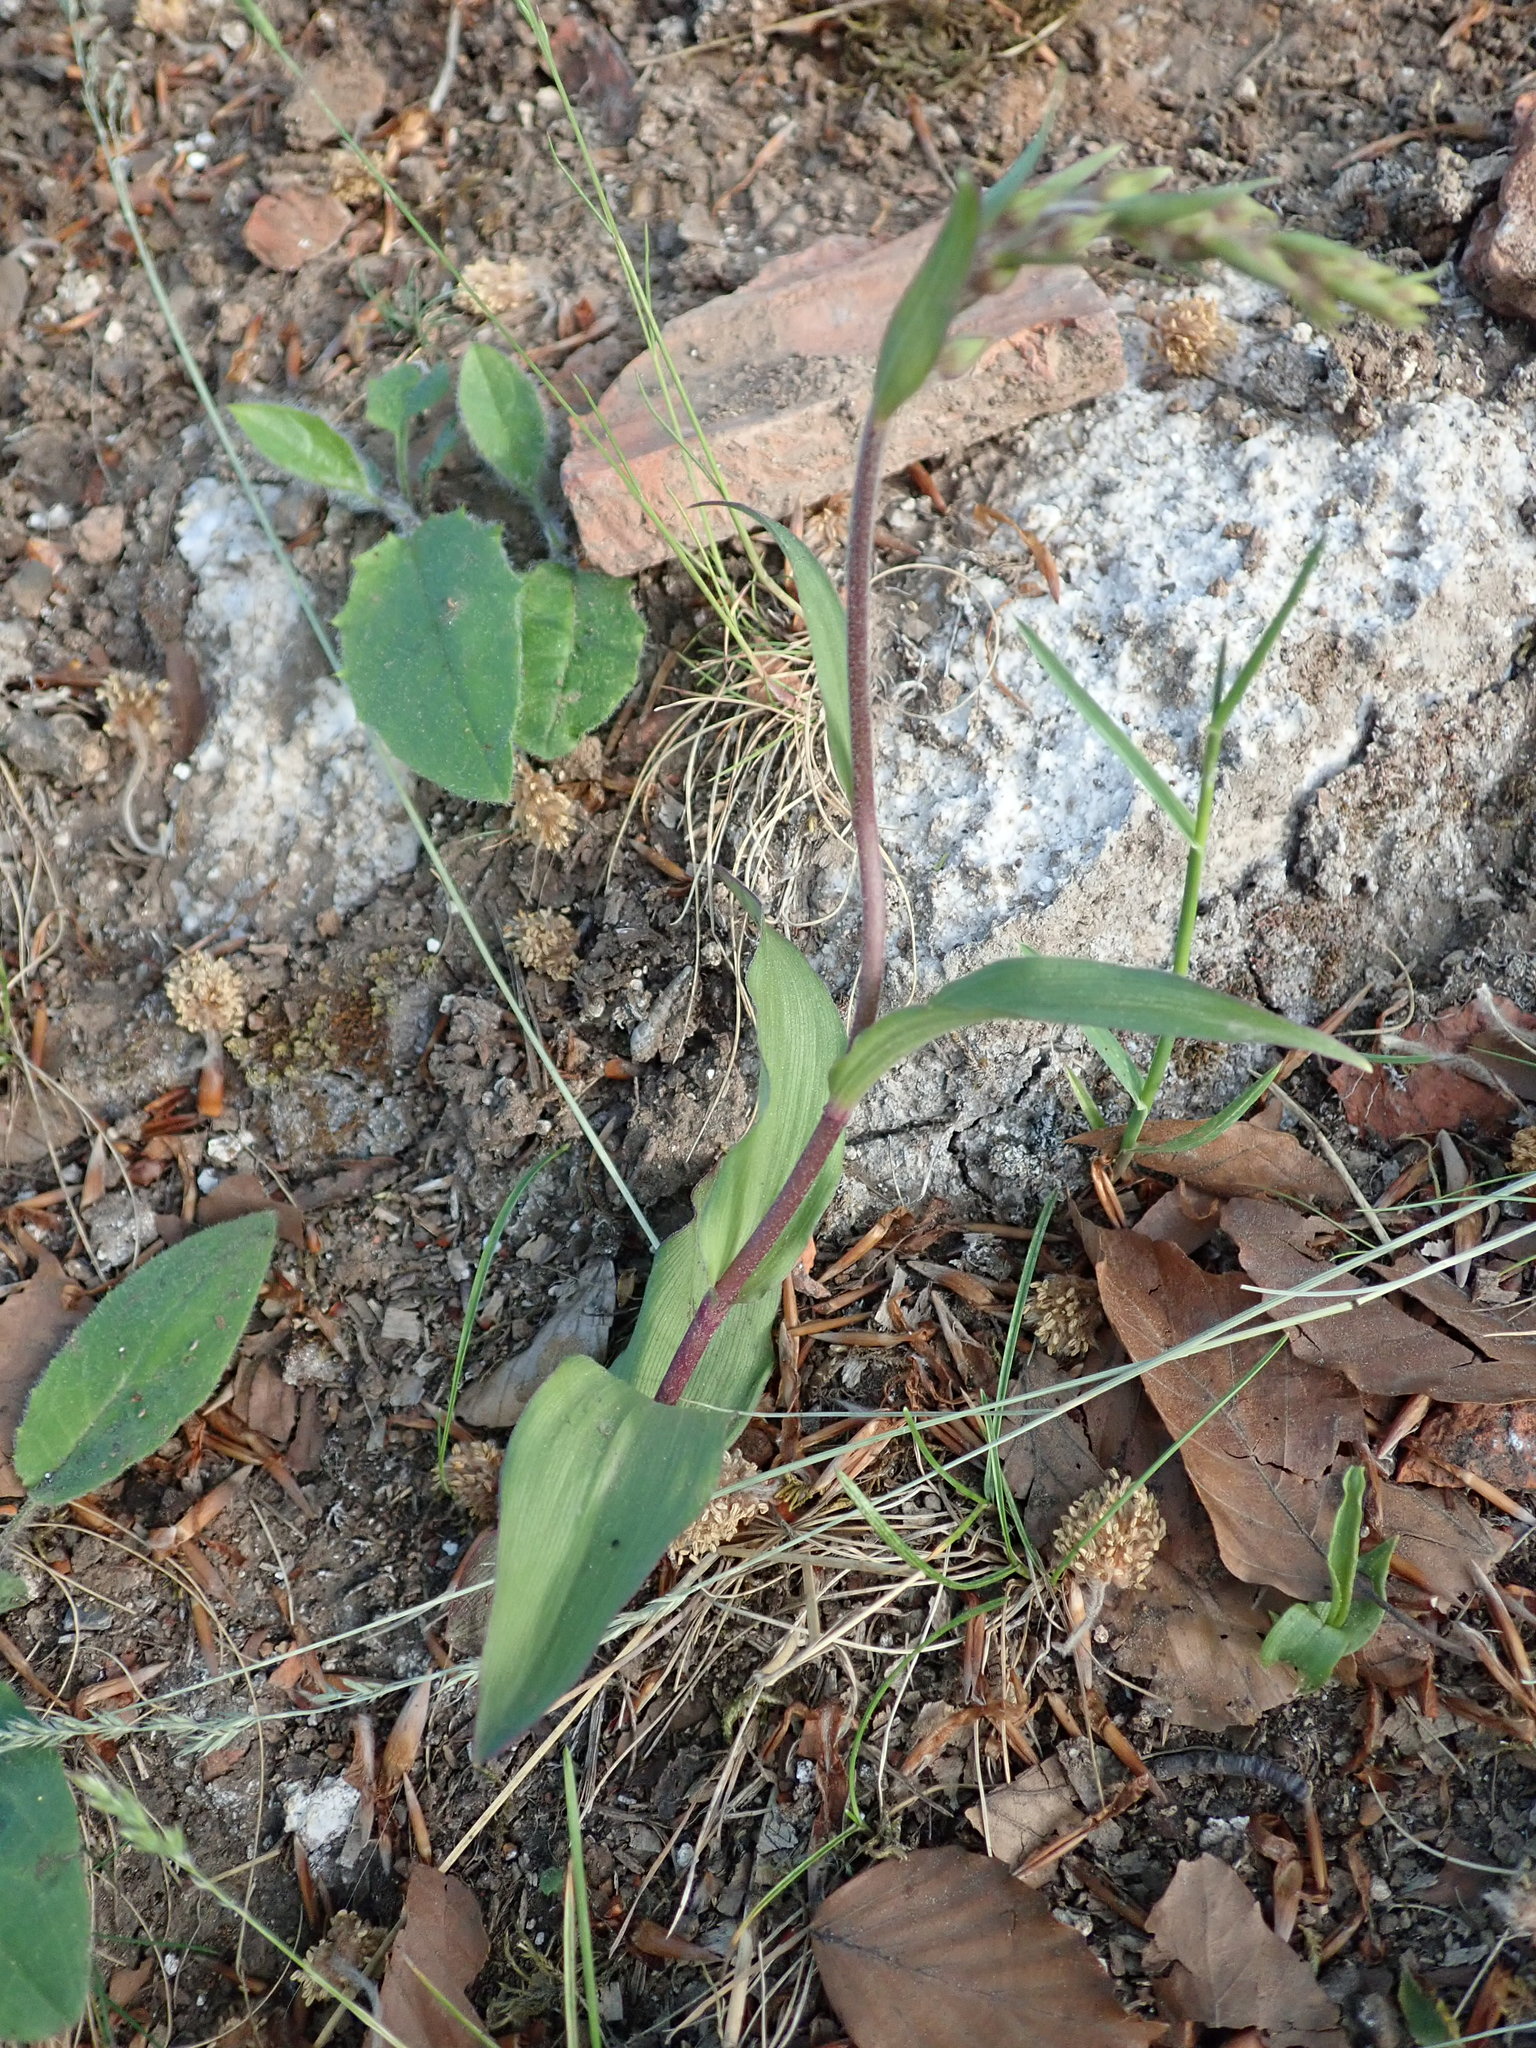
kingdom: Plantae
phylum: Tracheophyta
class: Liliopsida
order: Asparagales
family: Orchidaceae
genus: Epipactis
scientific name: Epipactis atrorubens
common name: Dark-red helleborine
